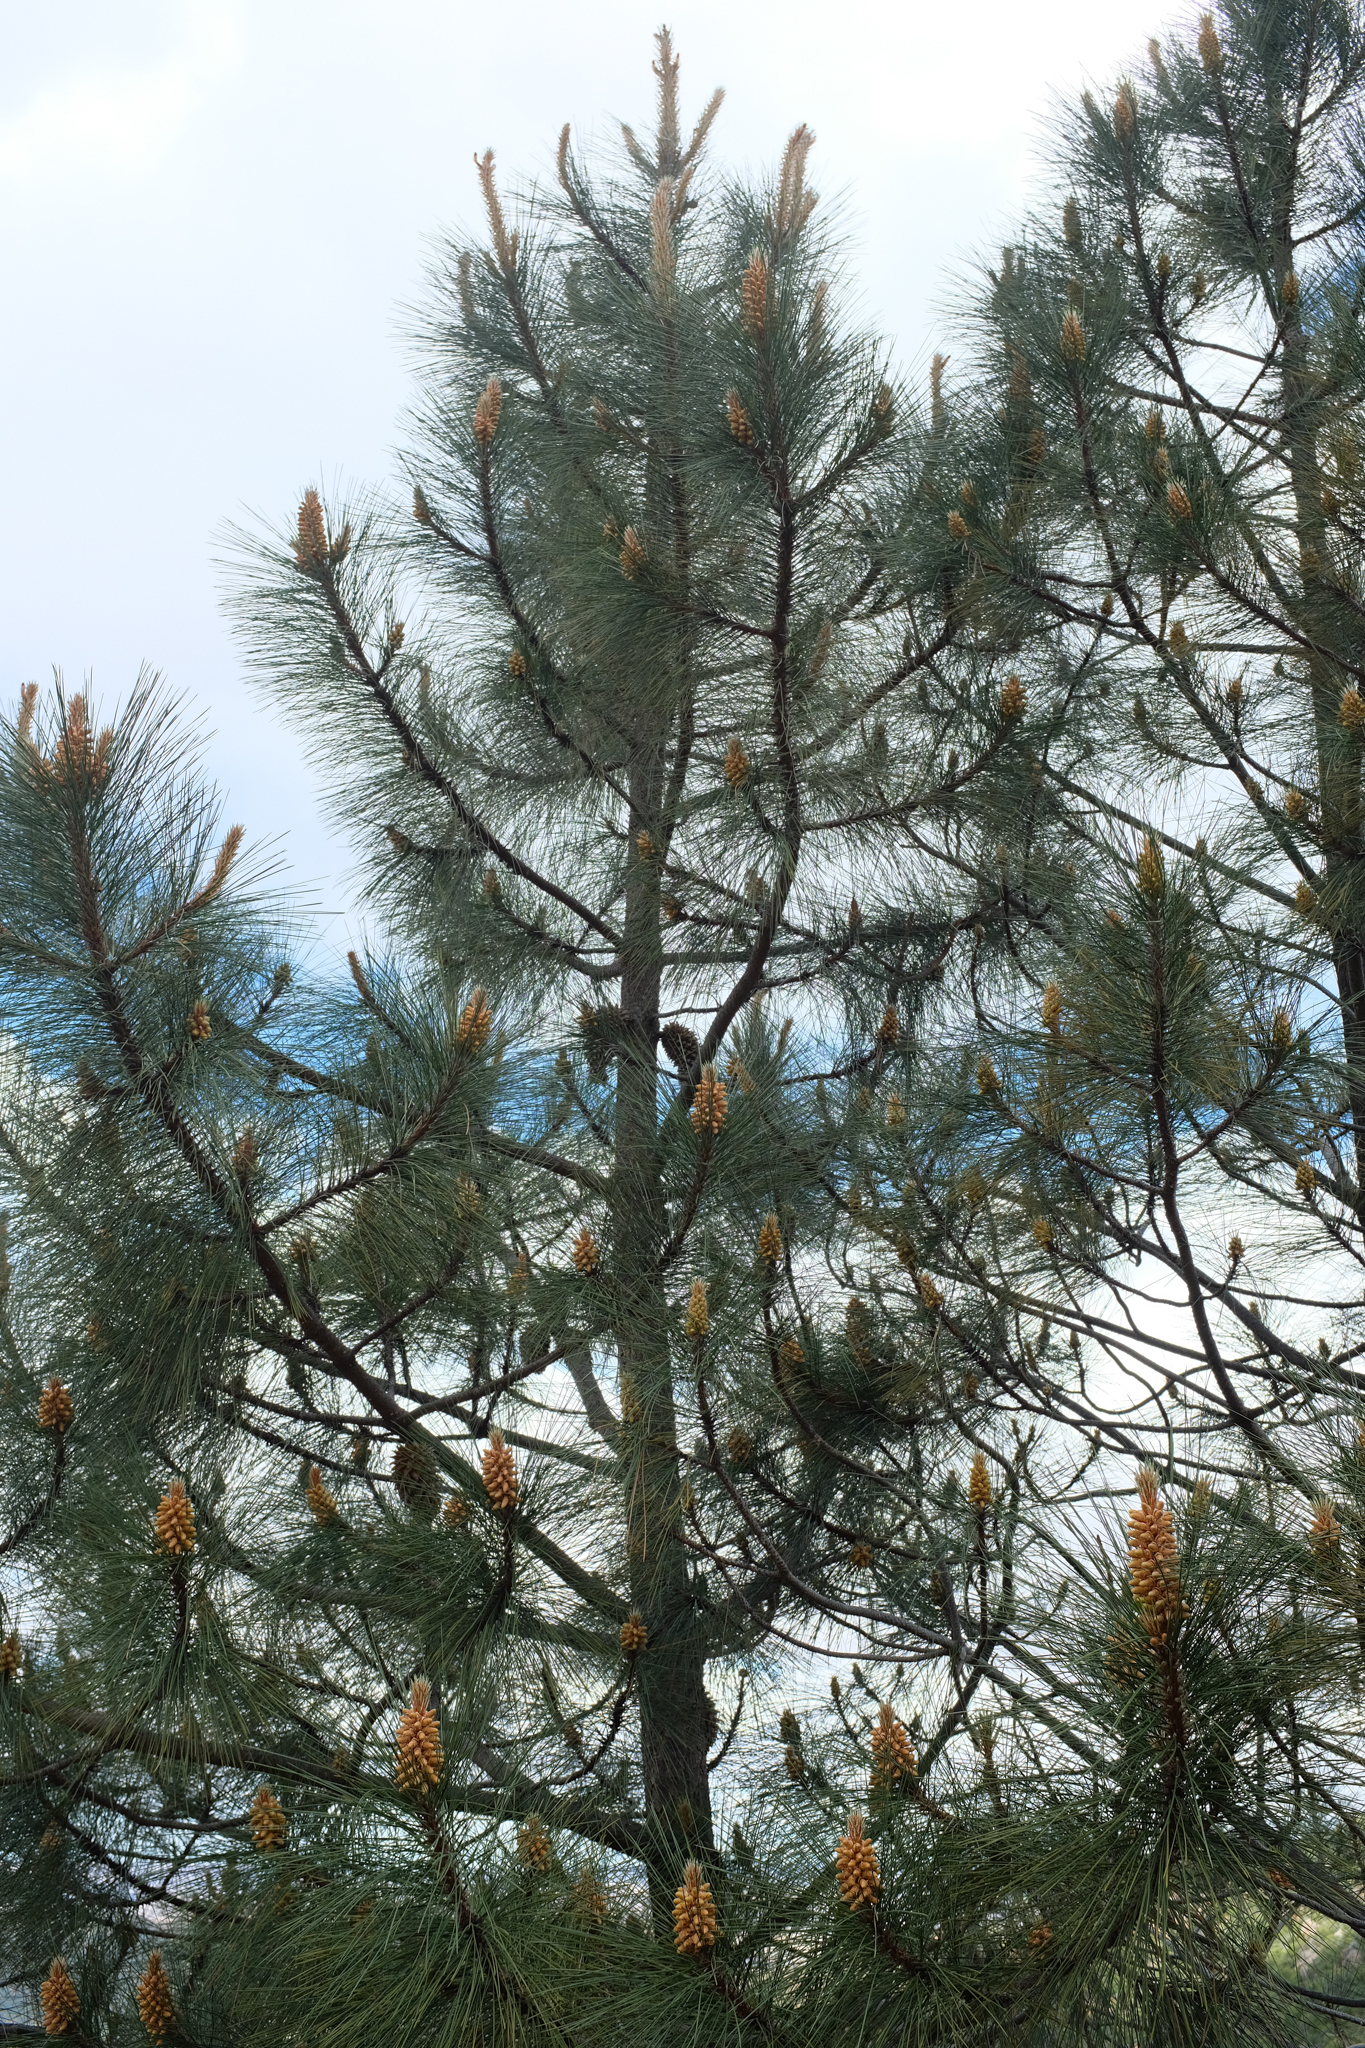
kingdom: Plantae
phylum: Tracheophyta
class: Pinopsida
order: Pinales
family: Pinaceae
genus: Pinus
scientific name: Pinus coulteri
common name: Coulter pine
